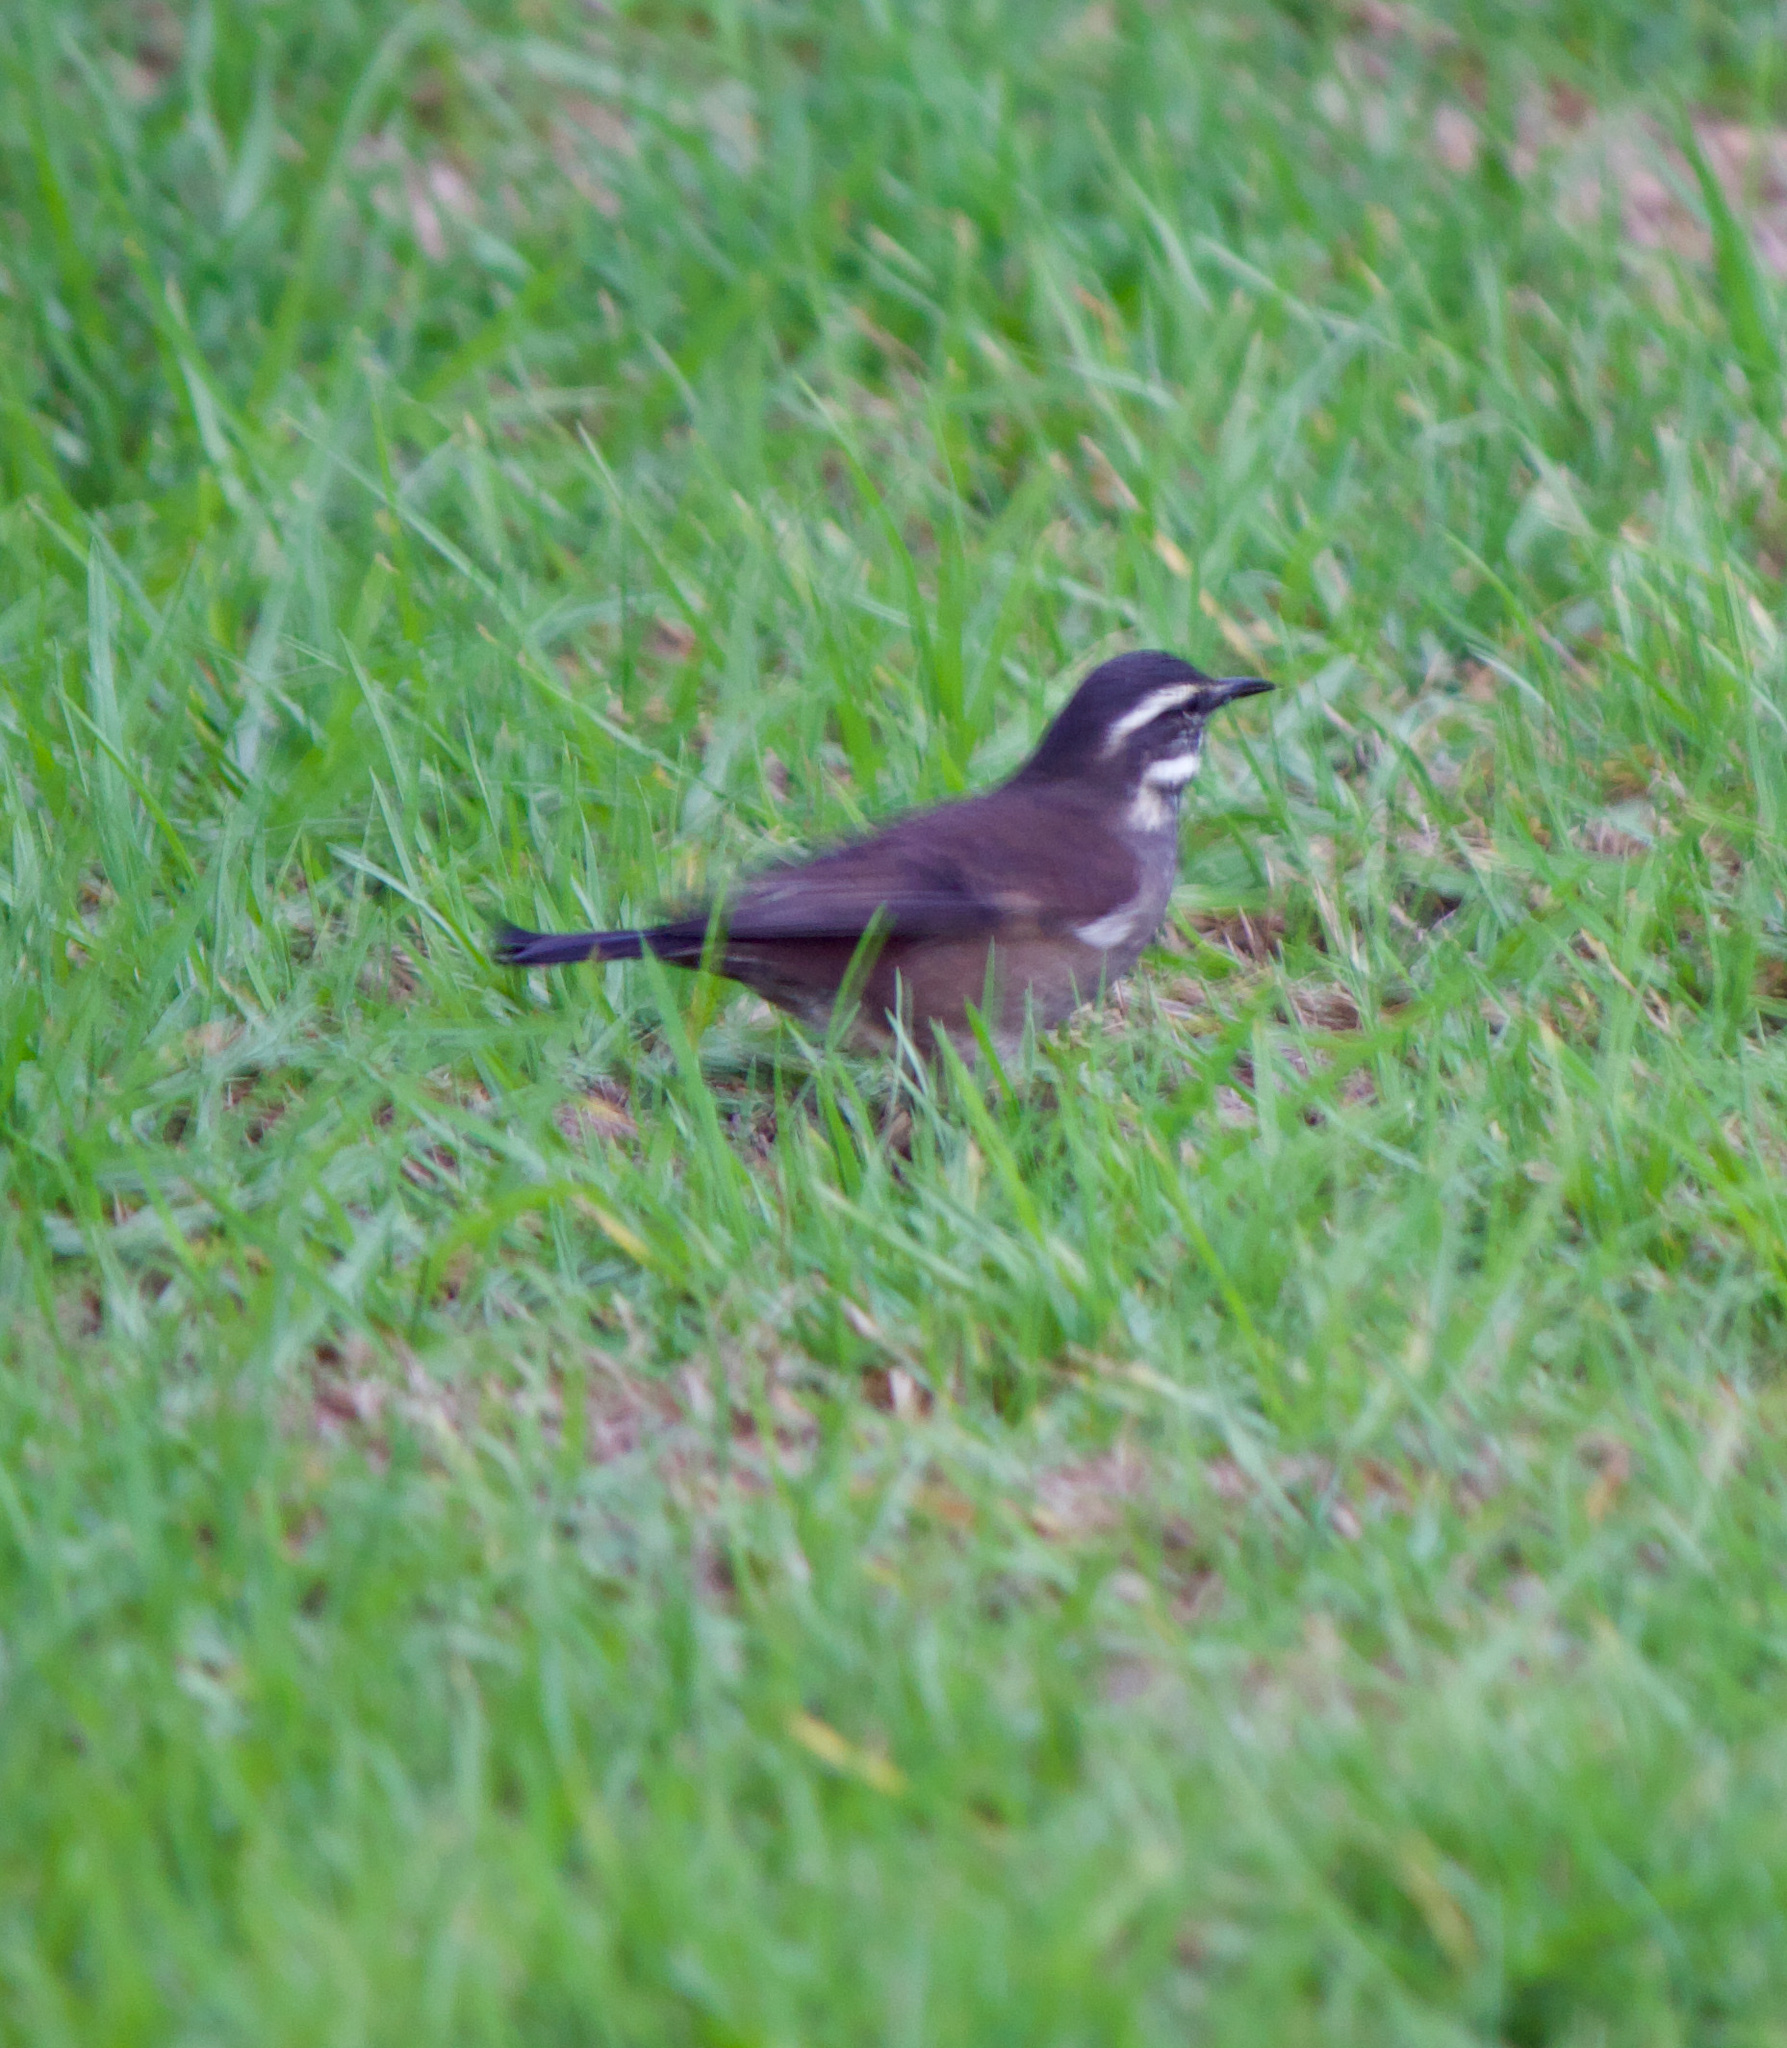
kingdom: Animalia
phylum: Chordata
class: Aves
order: Passeriformes
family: Furnariidae
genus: Cinclodes
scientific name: Cinclodes oustaleti
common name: Grey-flanked cinclodes
